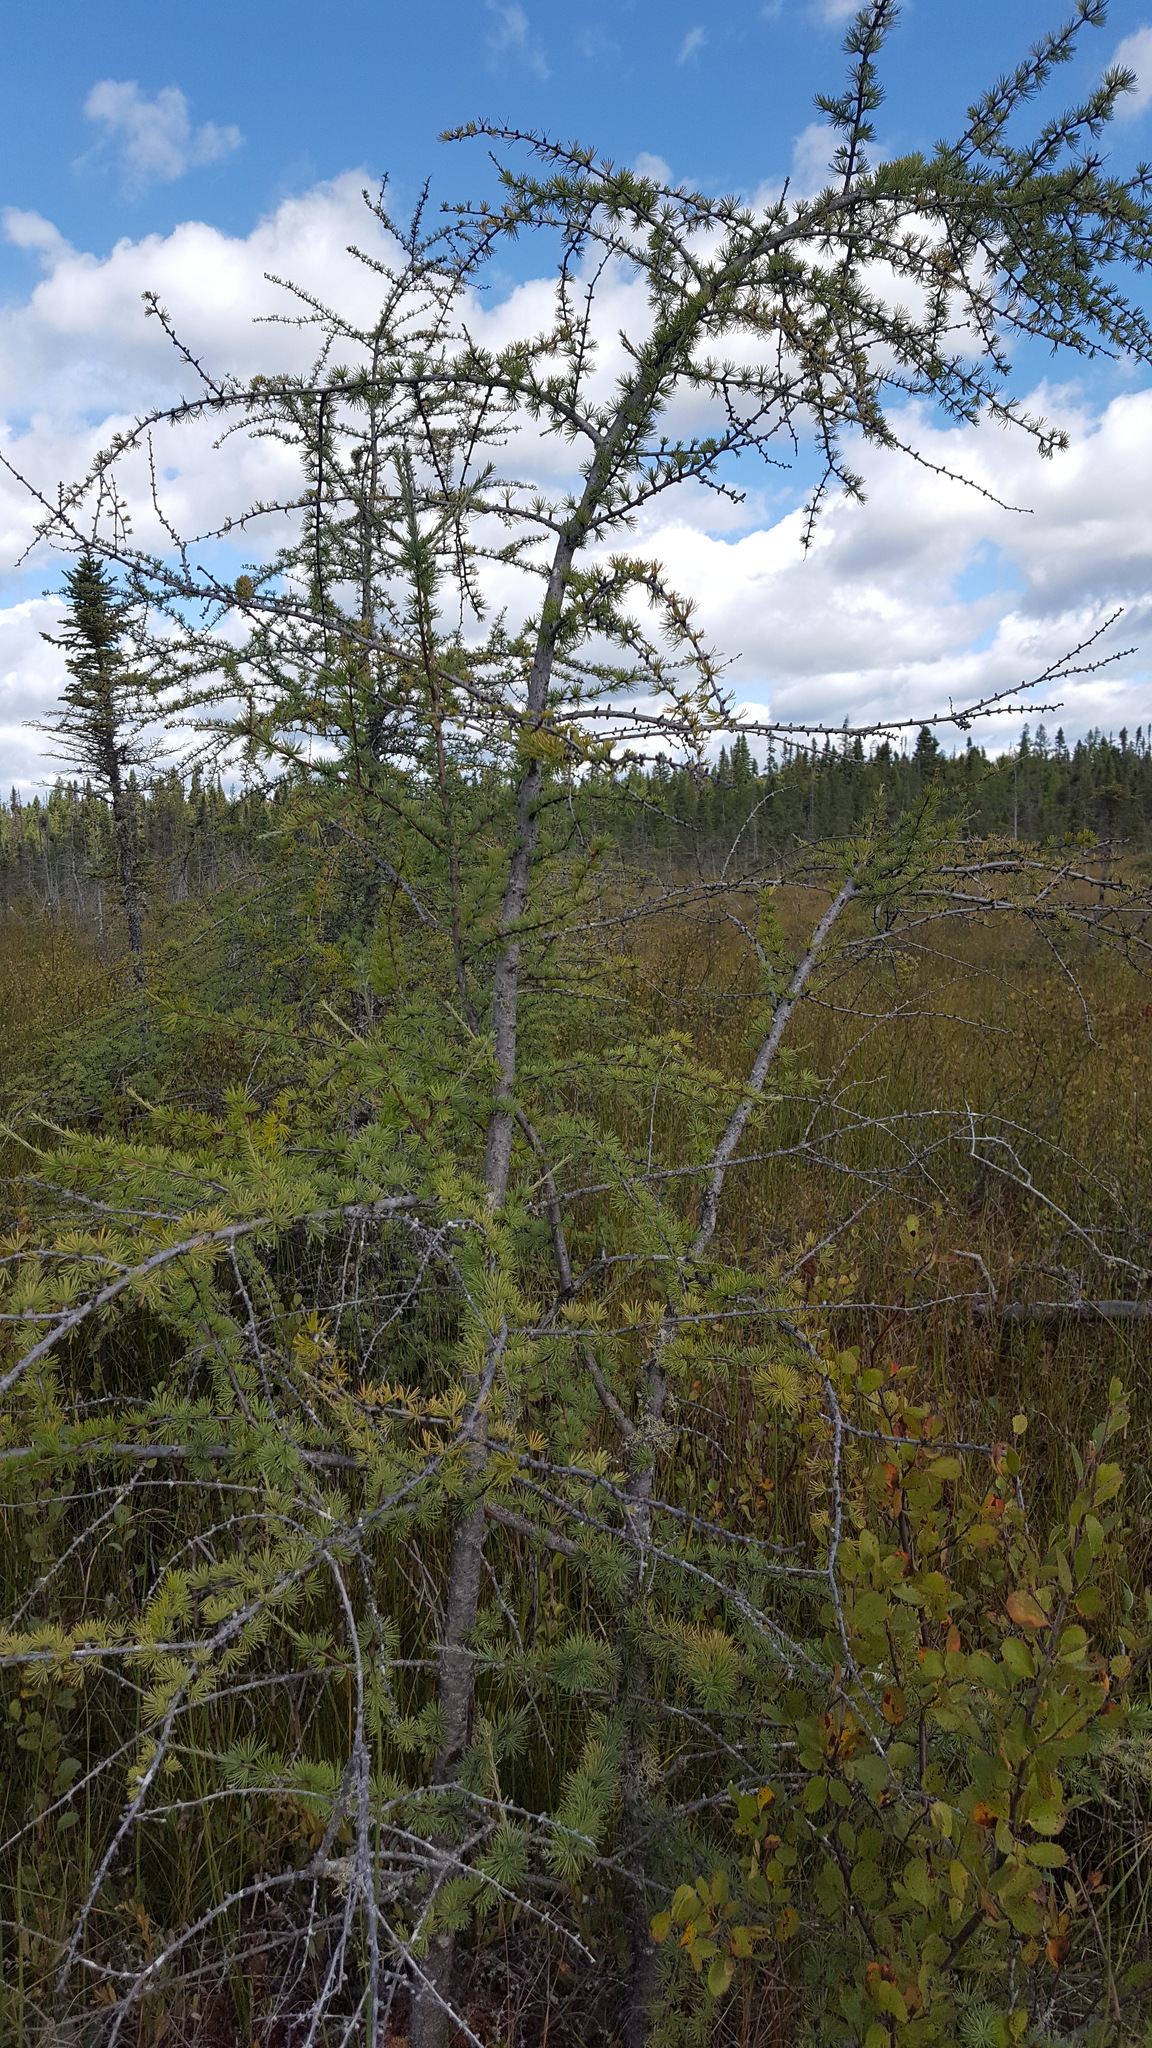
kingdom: Plantae
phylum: Tracheophyta
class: Pinopsida
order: Pinales
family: Pinaceae
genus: Larix
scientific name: Larix laricina
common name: American larch
